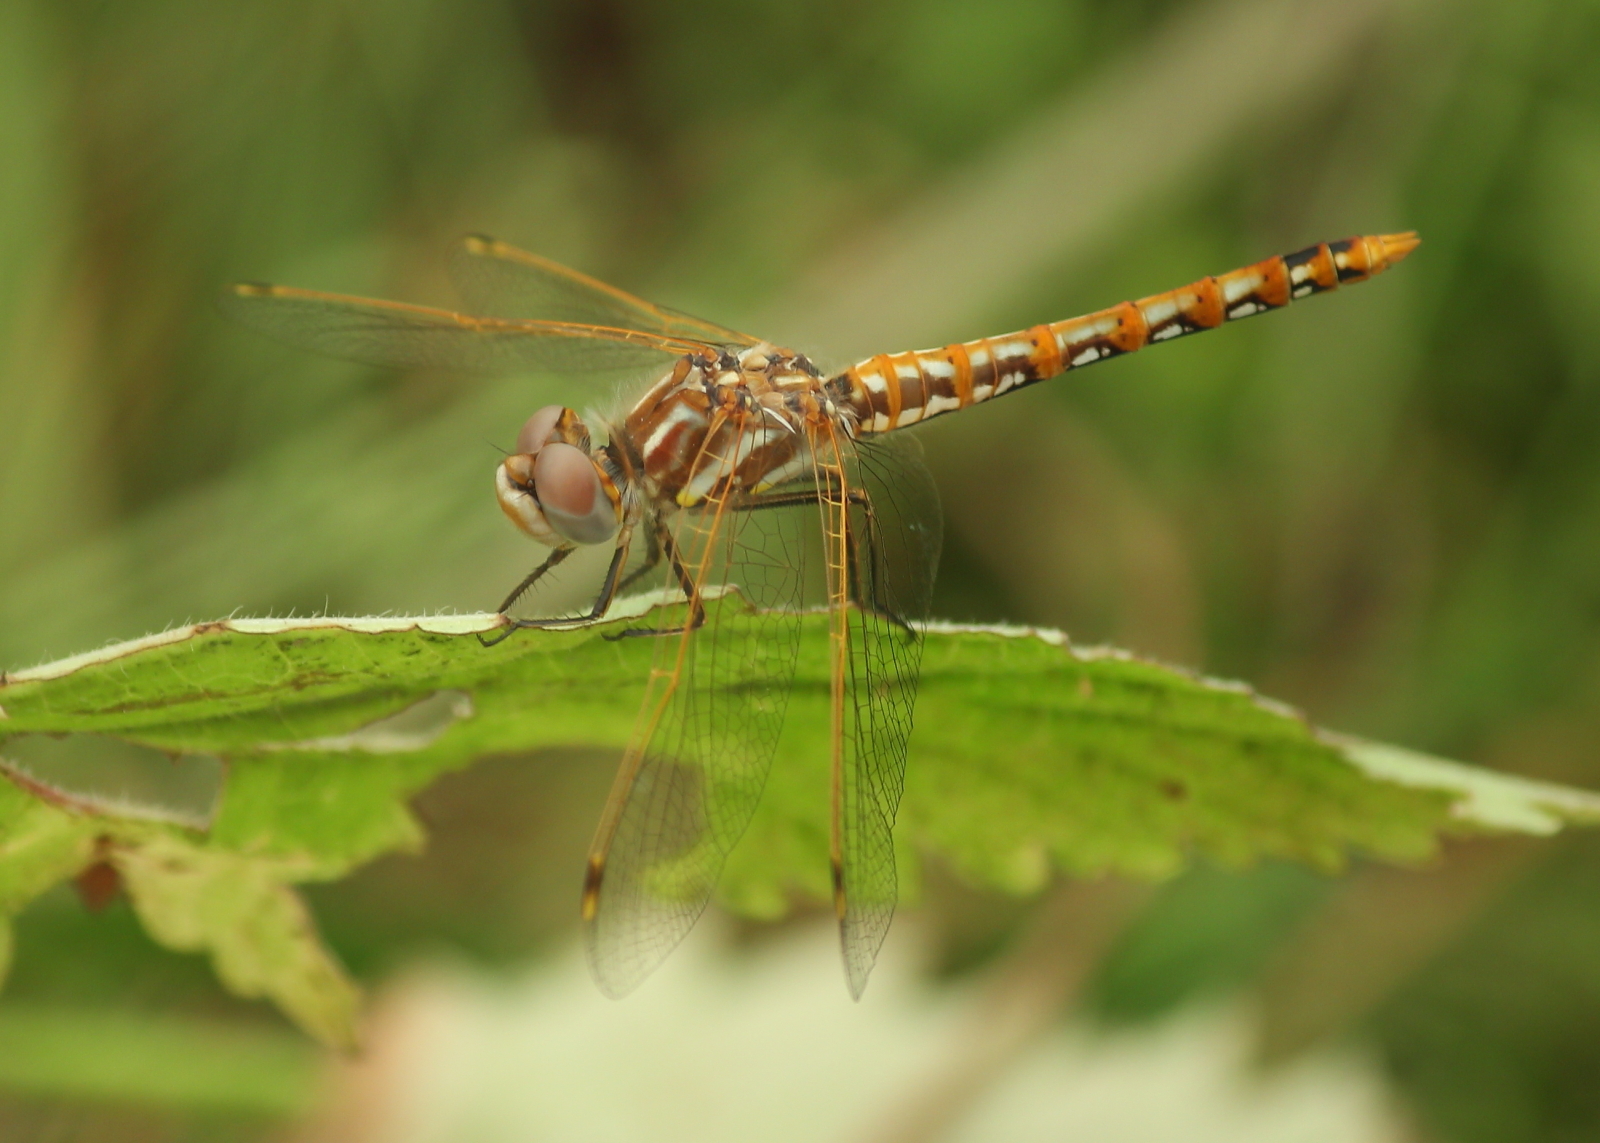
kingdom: Animalia
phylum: Arthropoda
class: Insecta
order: Odonata
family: Libellulidae
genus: Sympetrum
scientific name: Sympetrum corruptum
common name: Variegated meadowhawk
